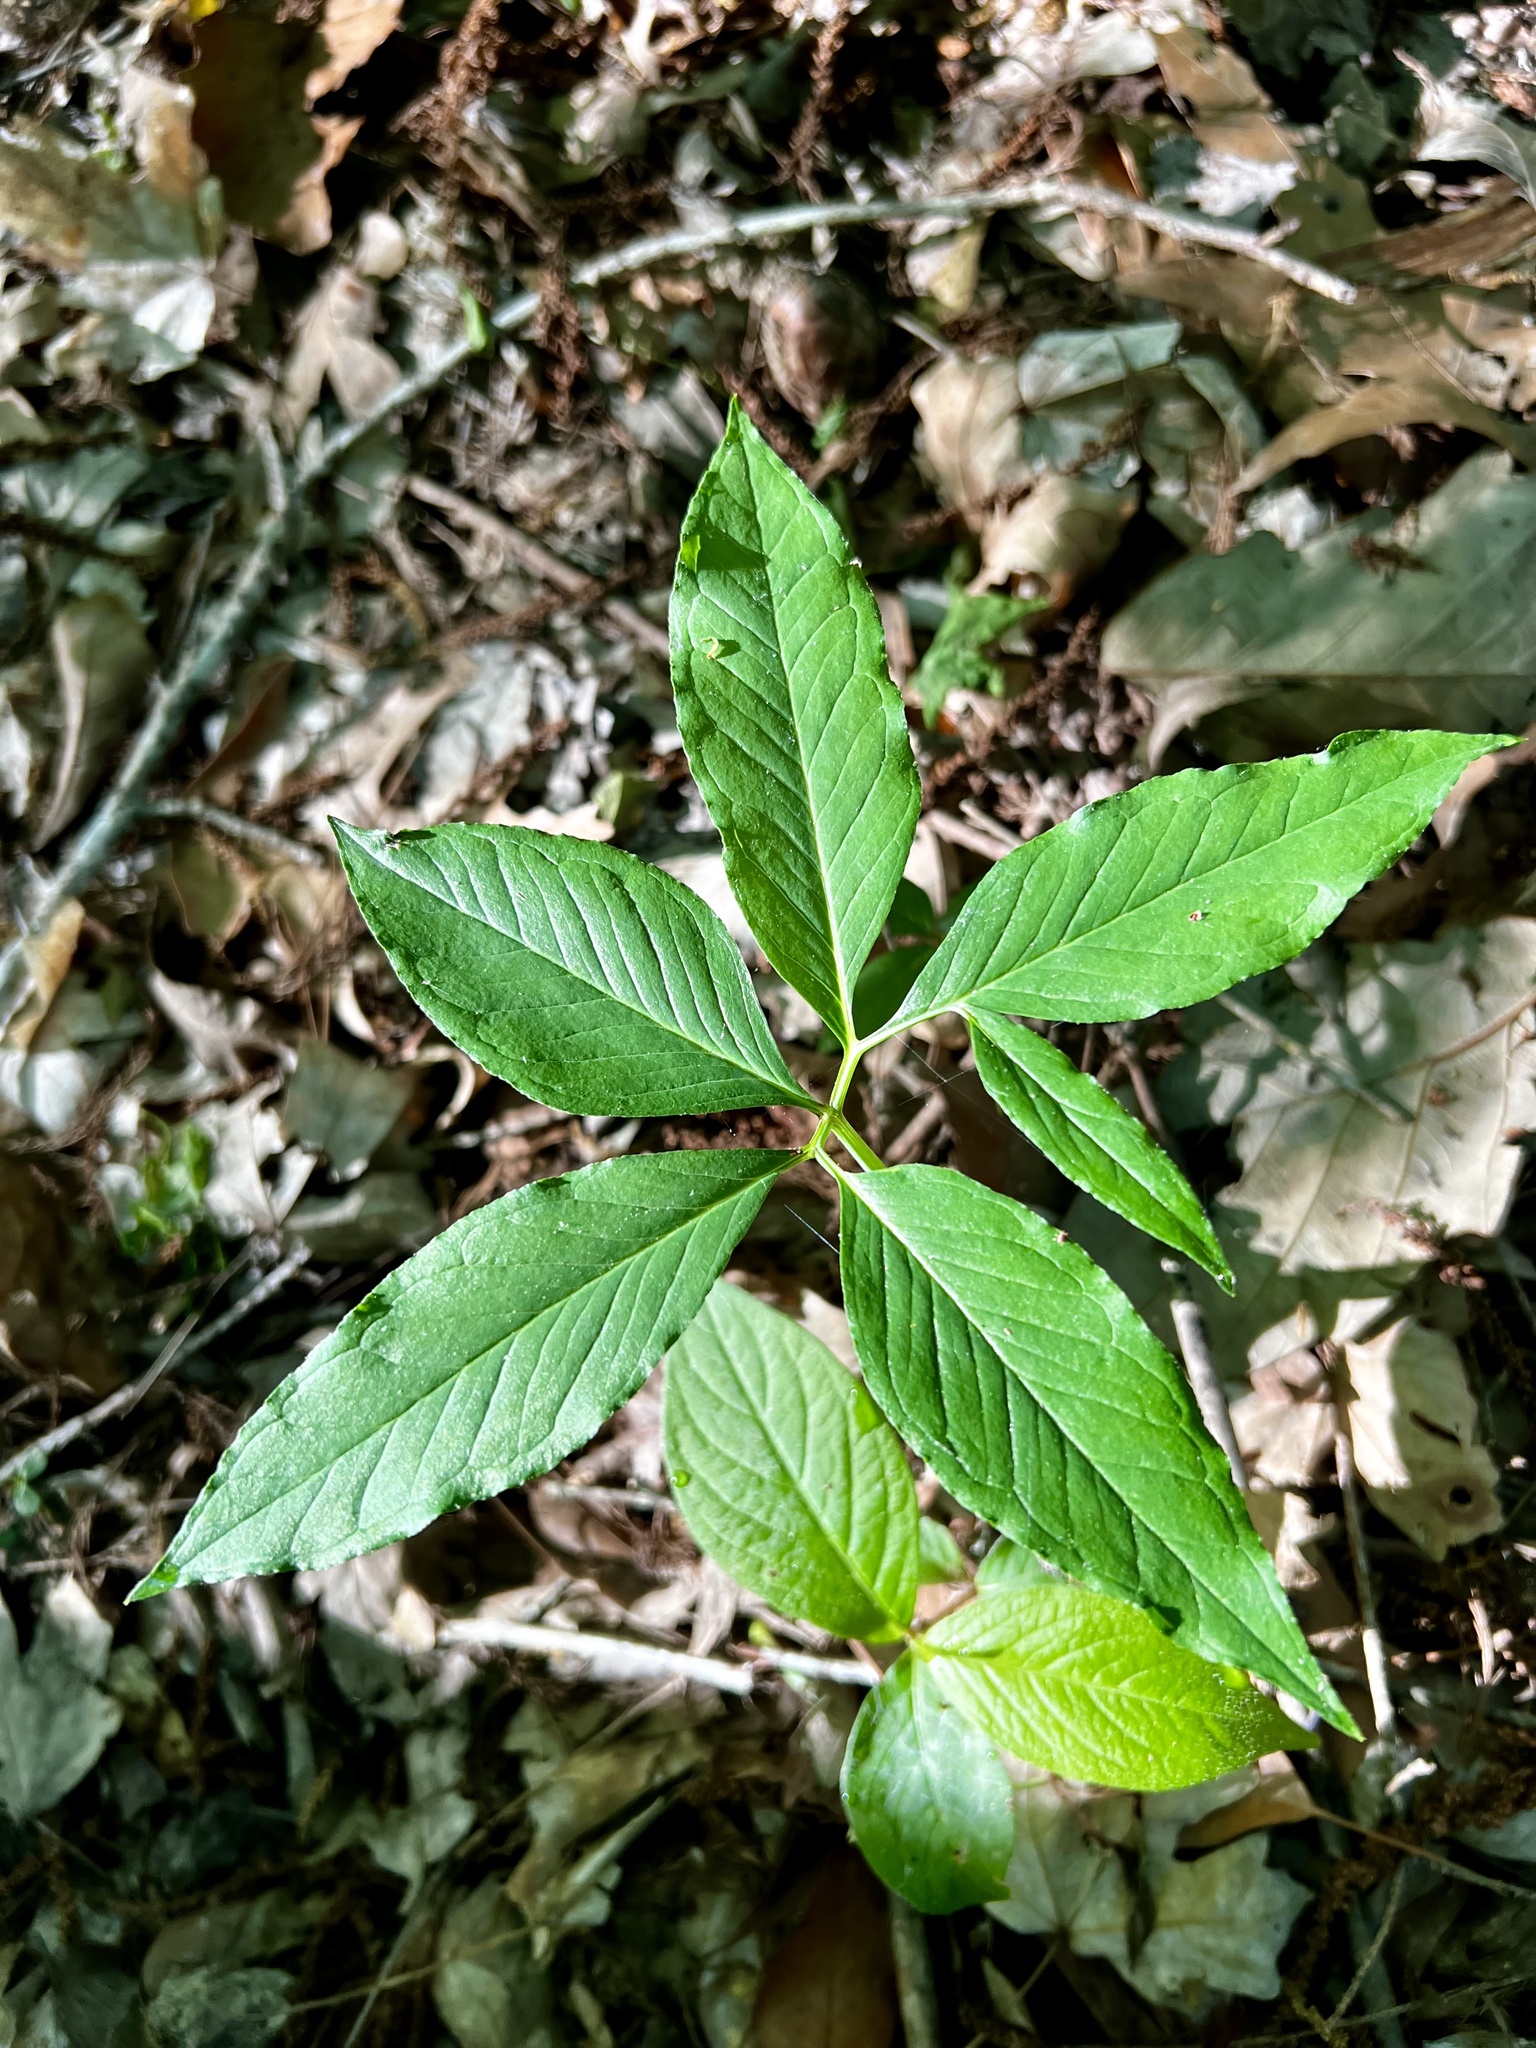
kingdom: Plantae
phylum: Tracheophyta
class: Liliopsida
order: Alismatales
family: Araceae
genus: Arisaema
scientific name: Arisaema dracontium
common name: Dragon-arum
